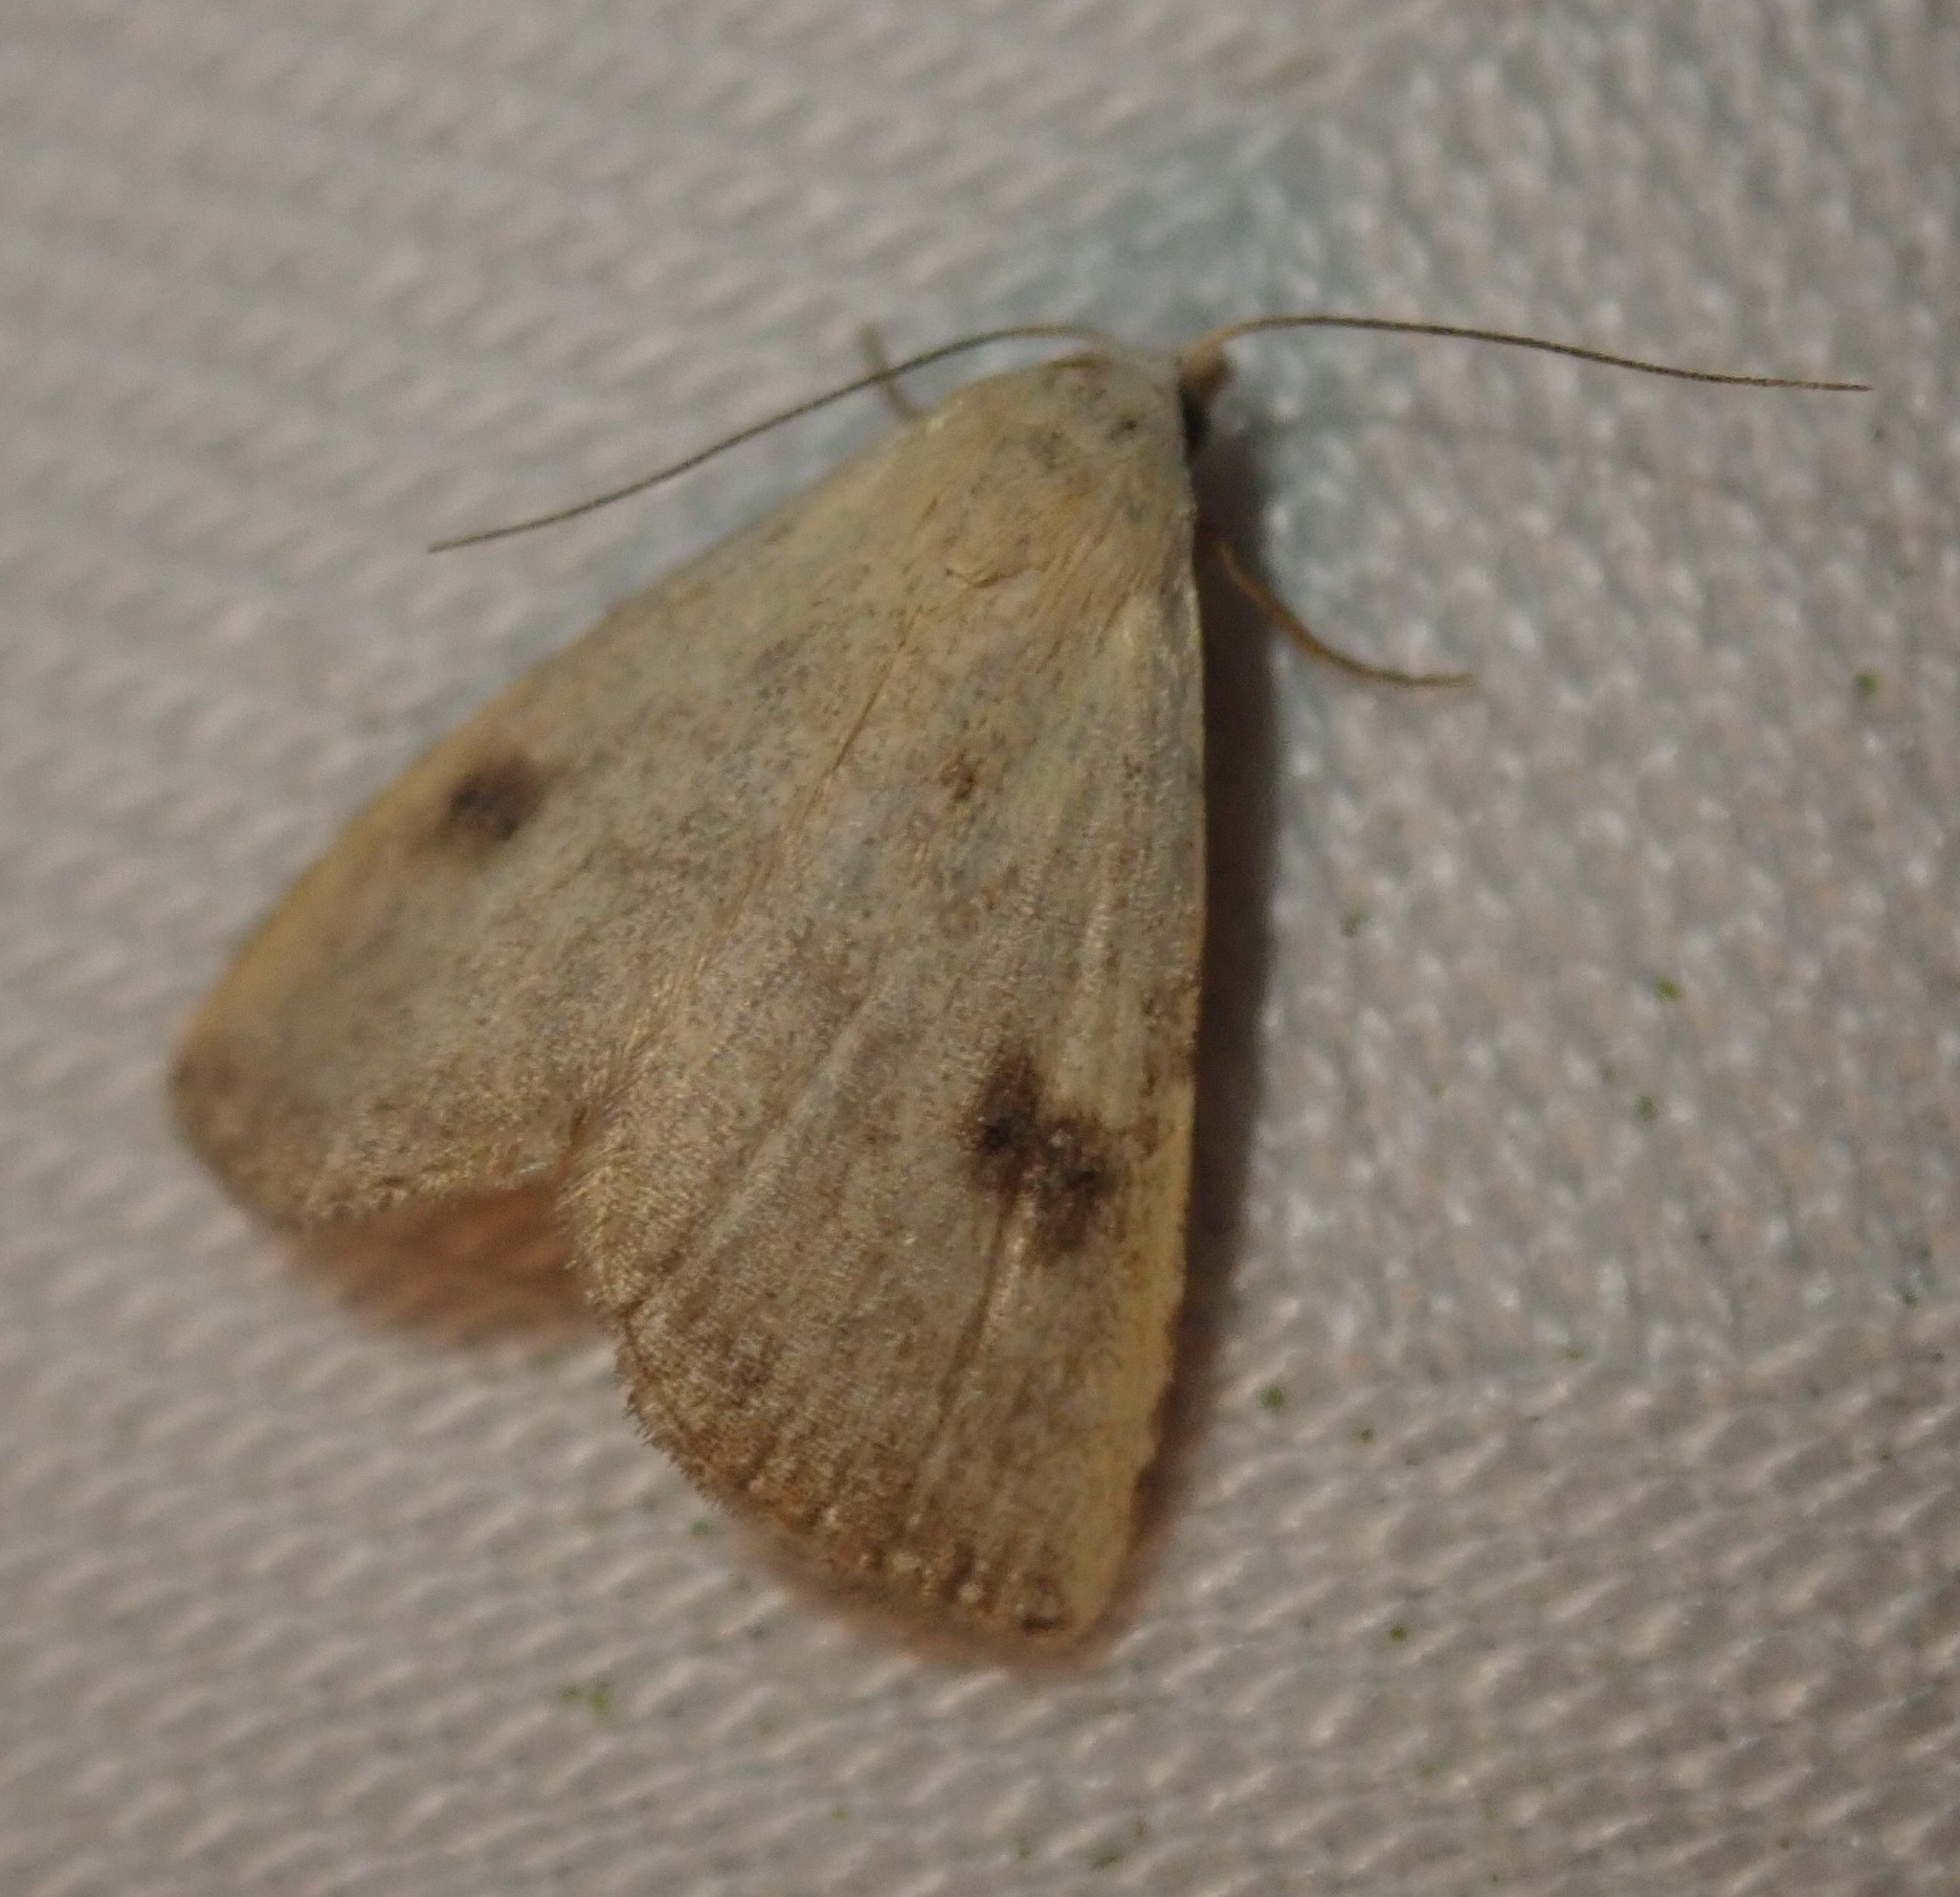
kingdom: Animalia
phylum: Arthropoda
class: Insecta
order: Lepidoptera
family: Erebidae
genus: Rivula
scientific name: Rivula sericealis
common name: Straw dot
